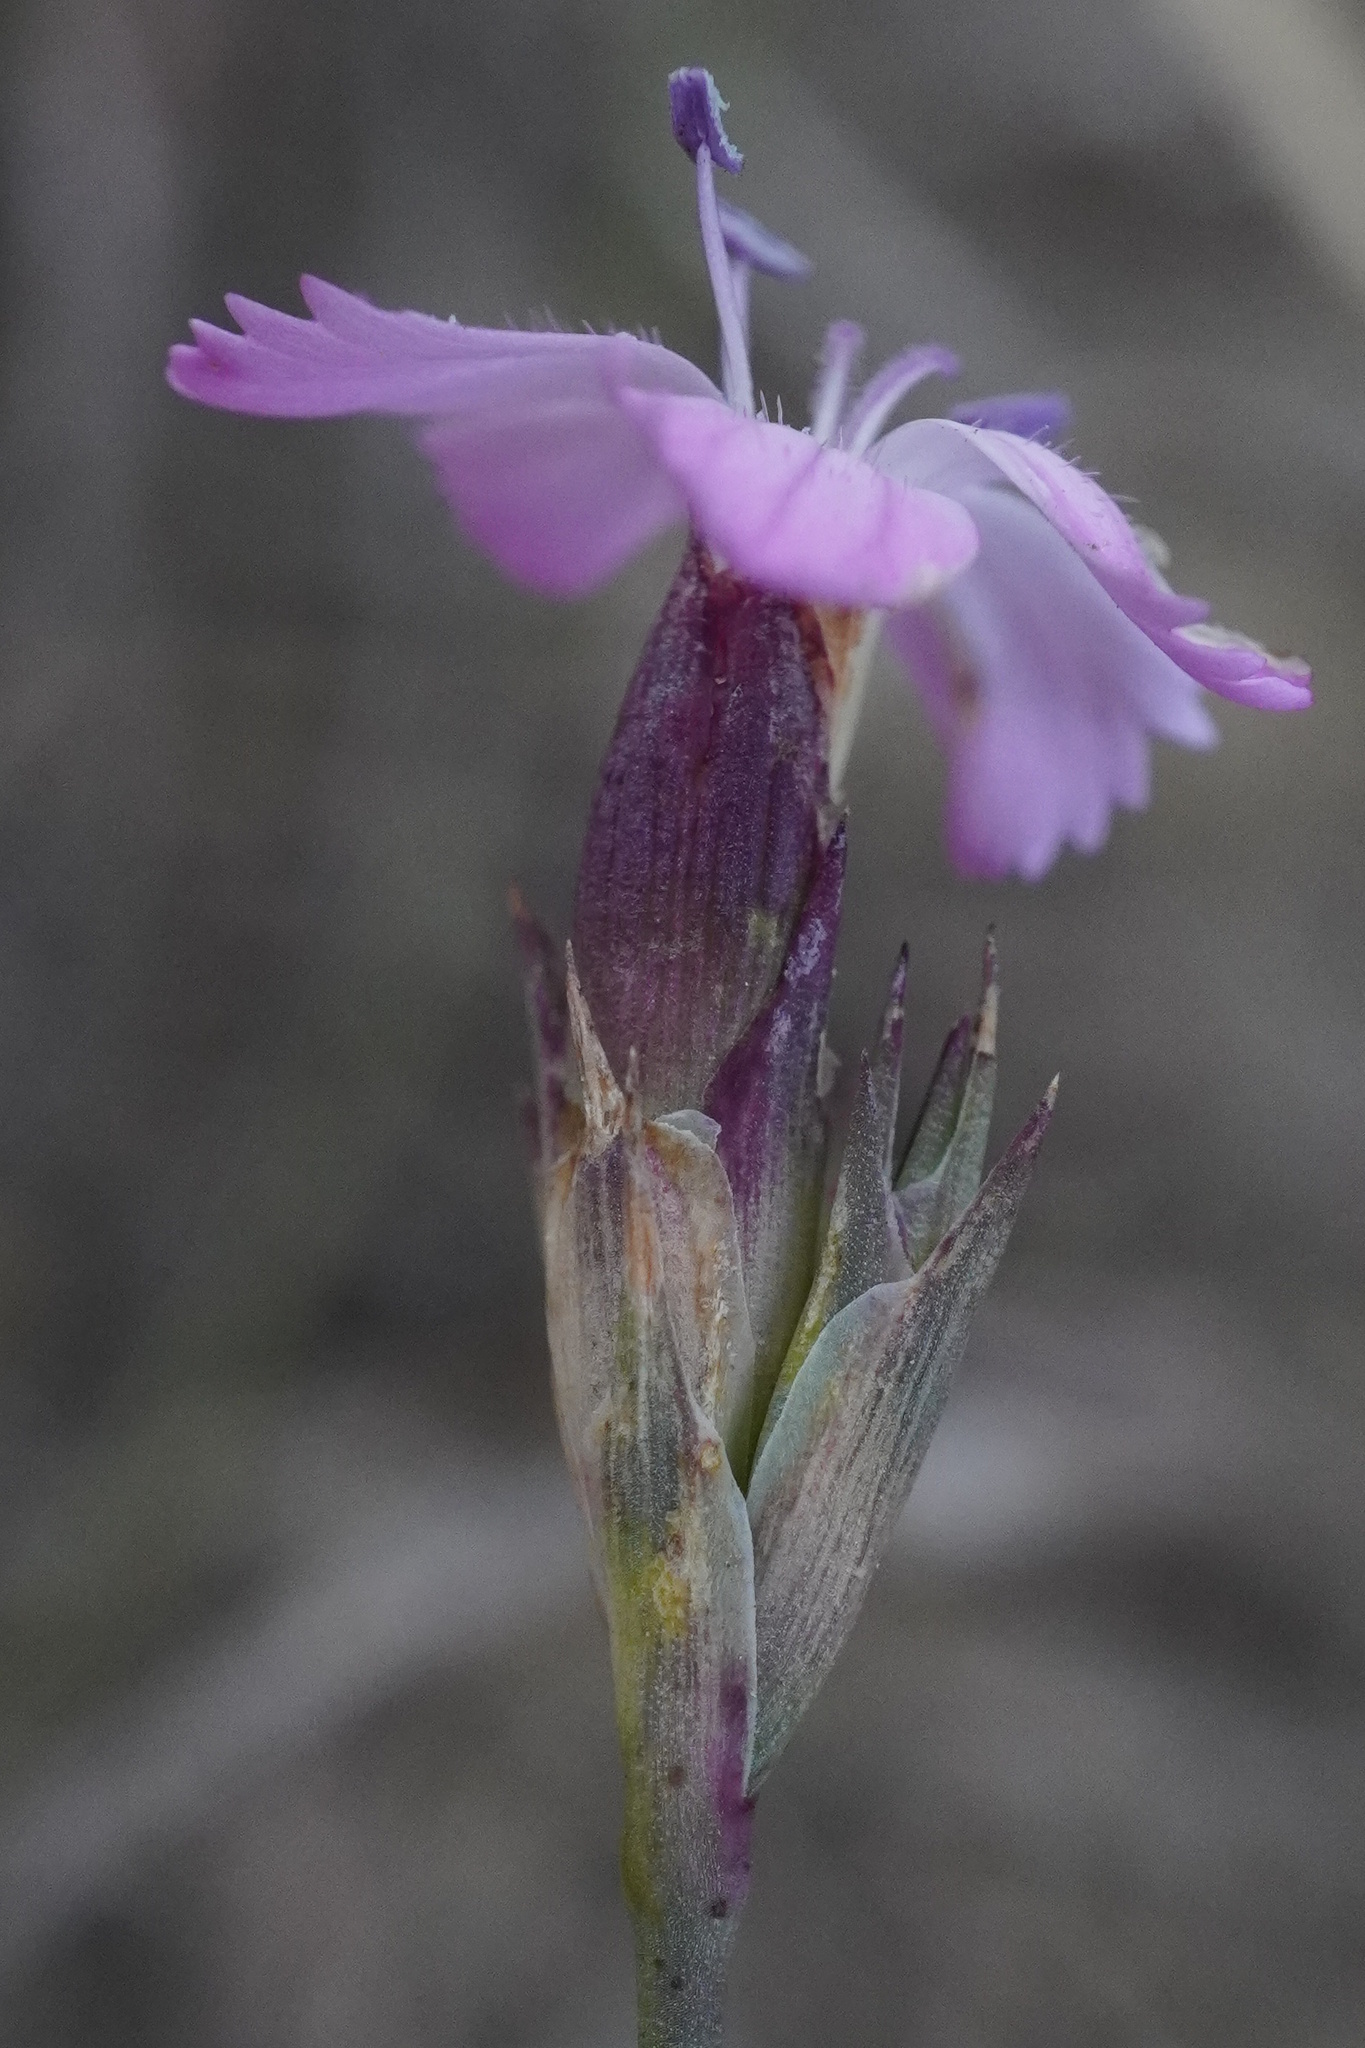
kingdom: Plantae
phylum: Tracheophyta
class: Magnoliopsida
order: Caryophyllales
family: Caryophyllaceae
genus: Dianthus
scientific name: Dianthus pontederae
